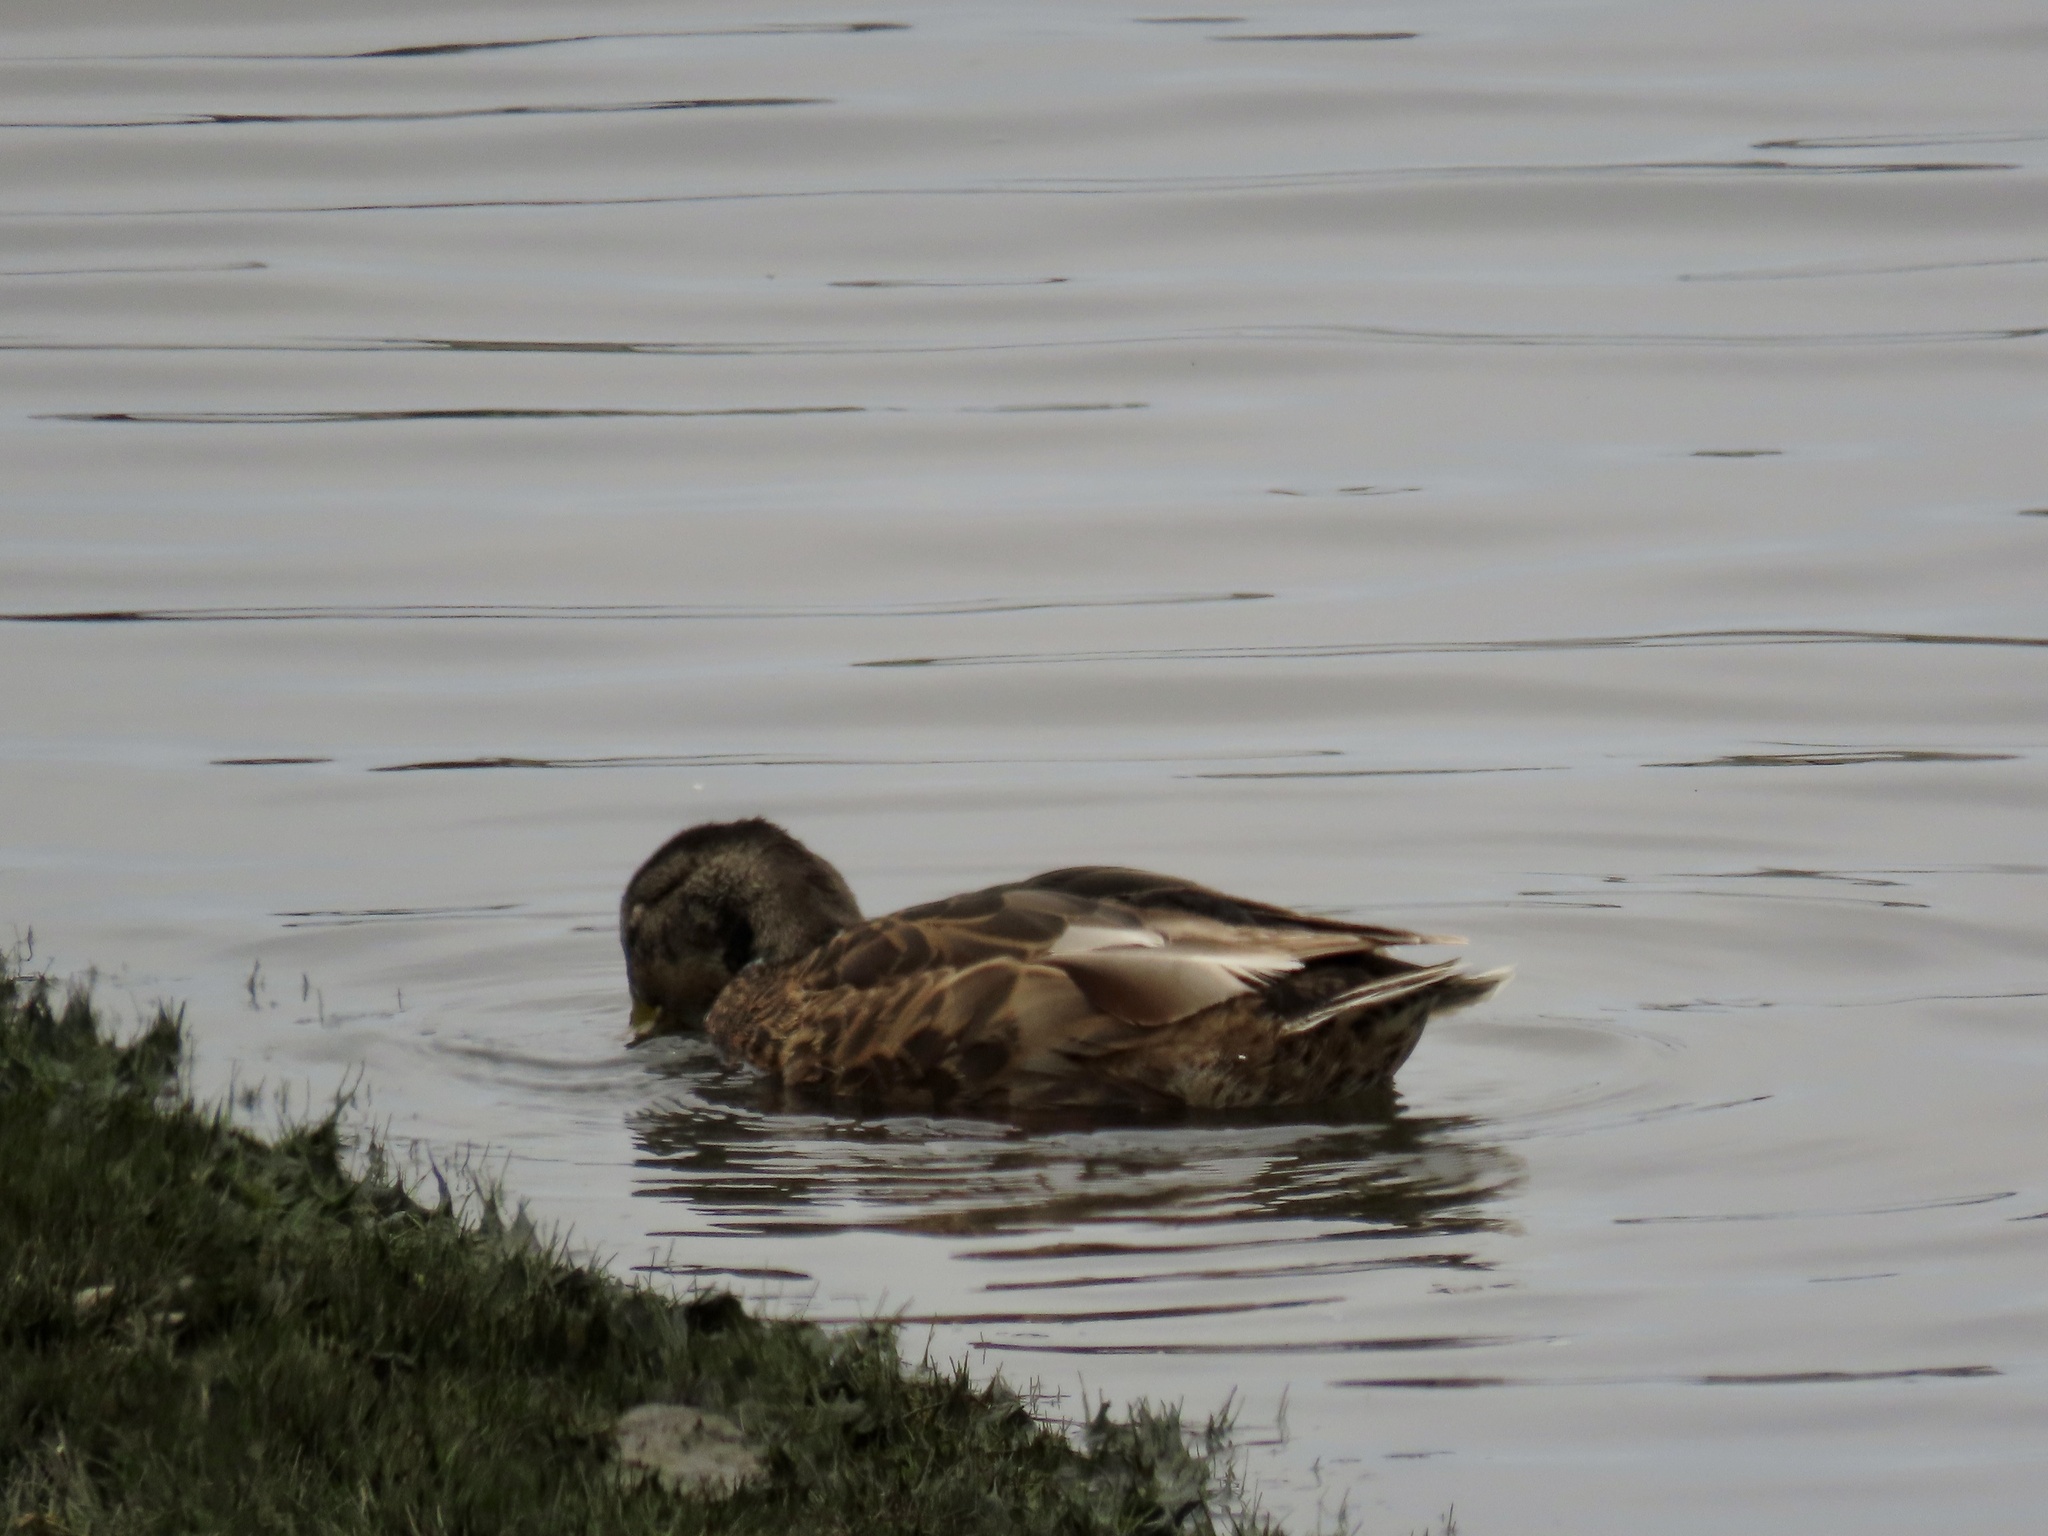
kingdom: Animalia
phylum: Chordata
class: Aves
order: Anseriformes
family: Anatidae
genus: Anas
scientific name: Anas platyrhynchos
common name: Mallard
